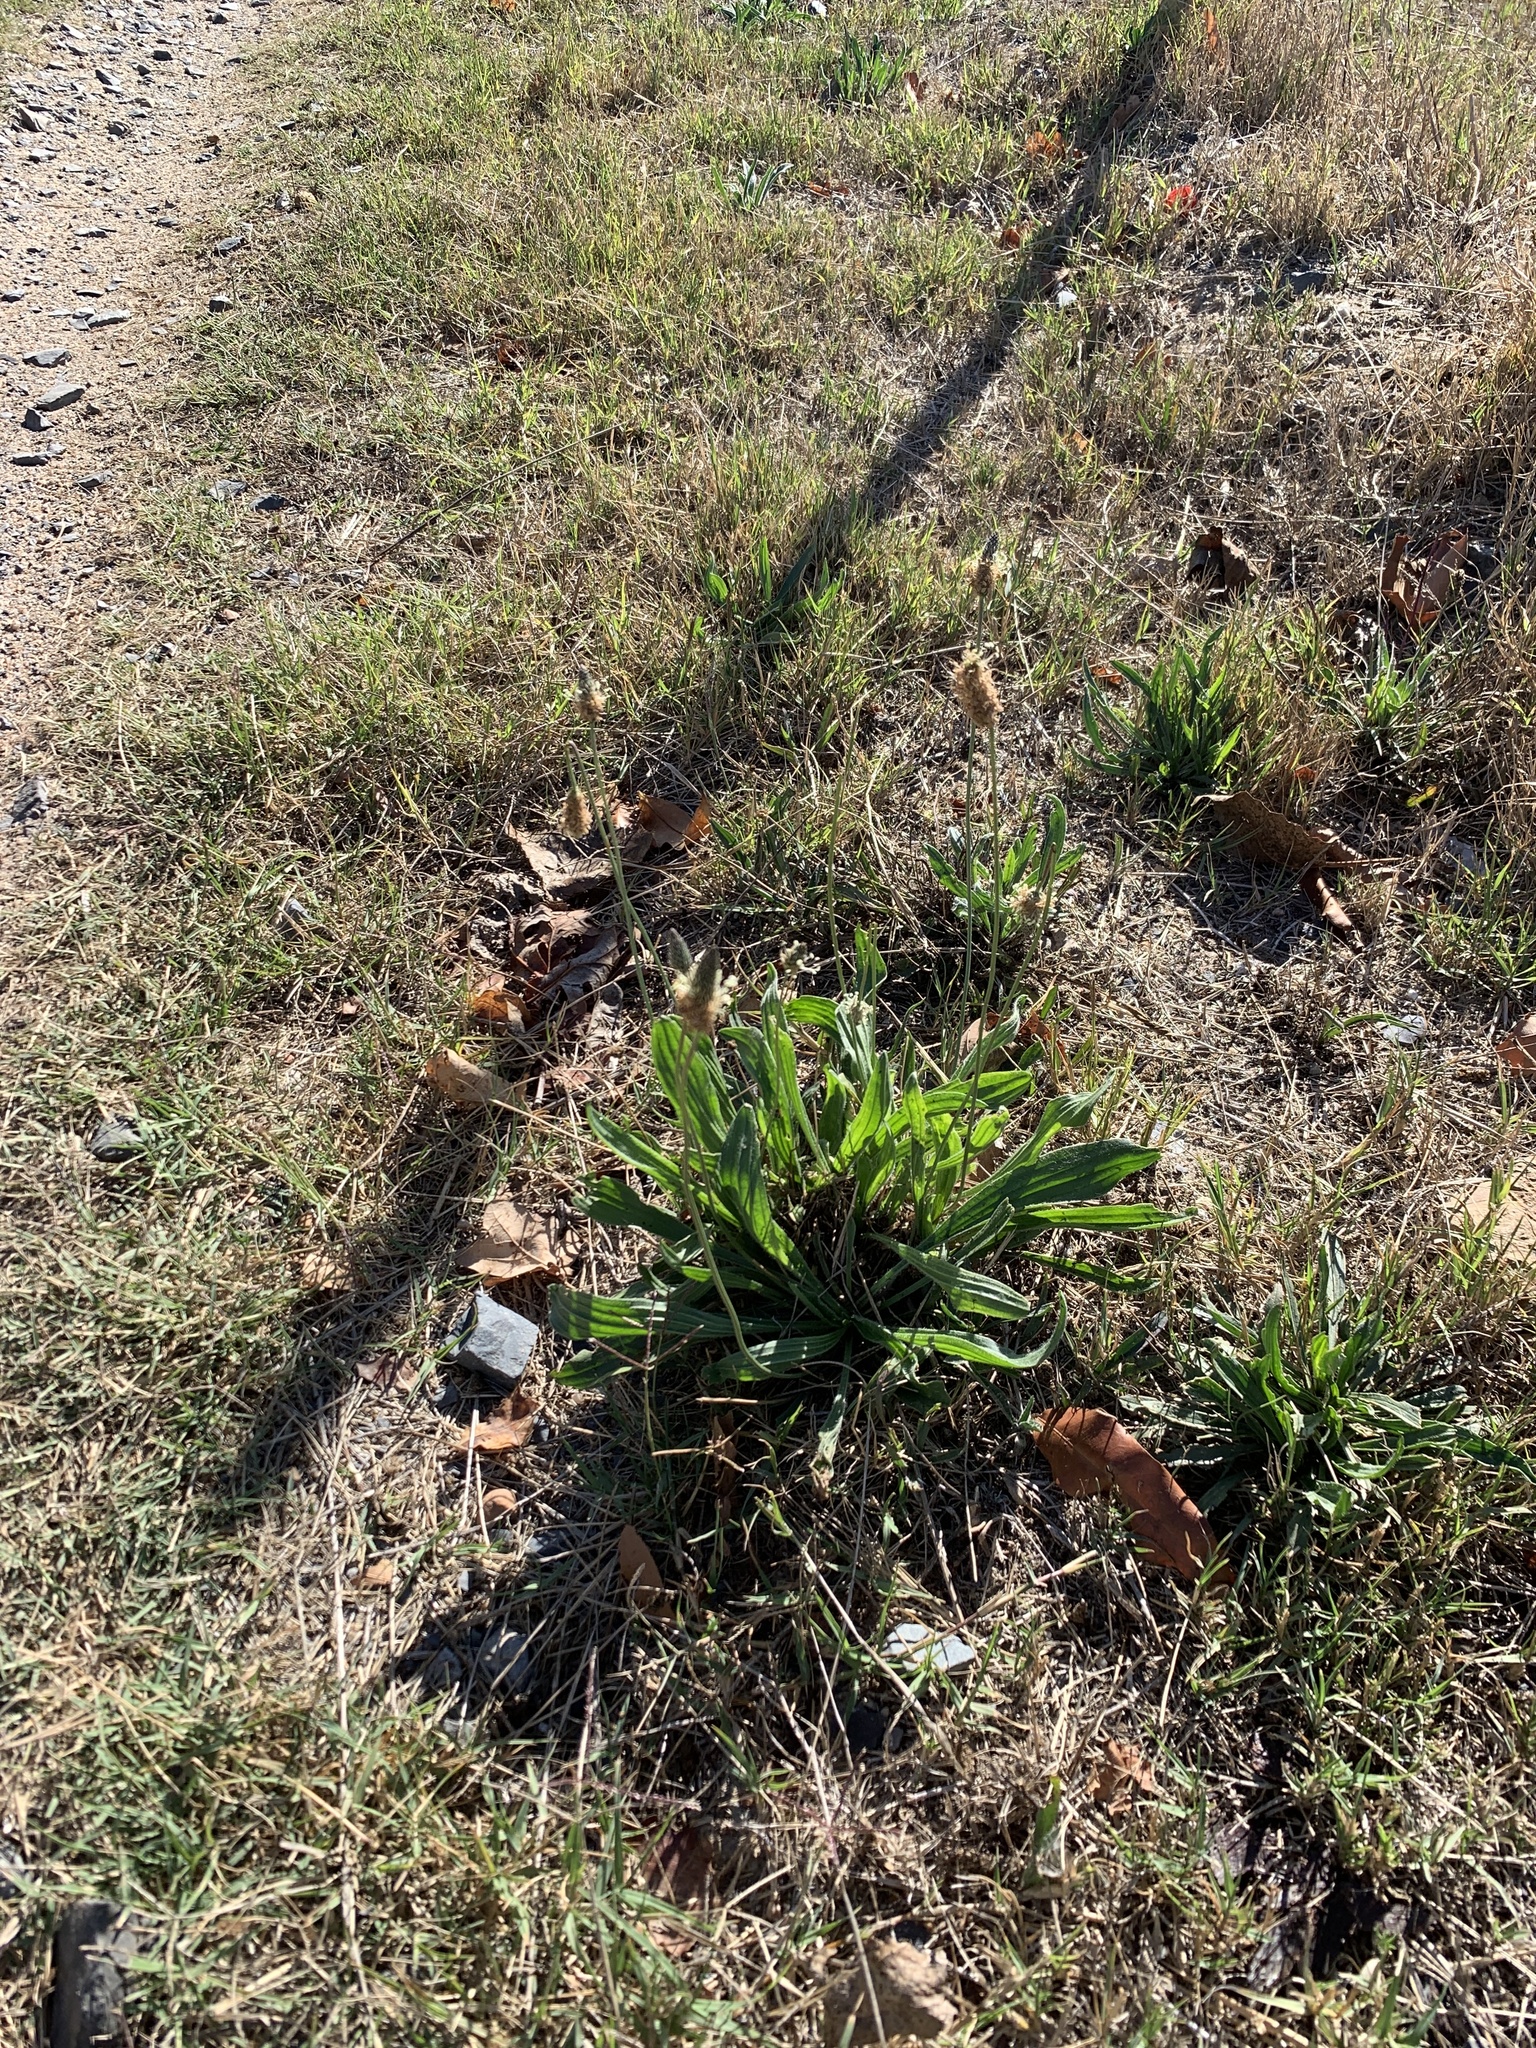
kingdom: Plantae
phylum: Tracheophyta
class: Magnoliopsida
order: Lamiales
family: Plantaginaceae
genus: Plantago
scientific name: Plantago lanceolata
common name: Ribwort plantain
